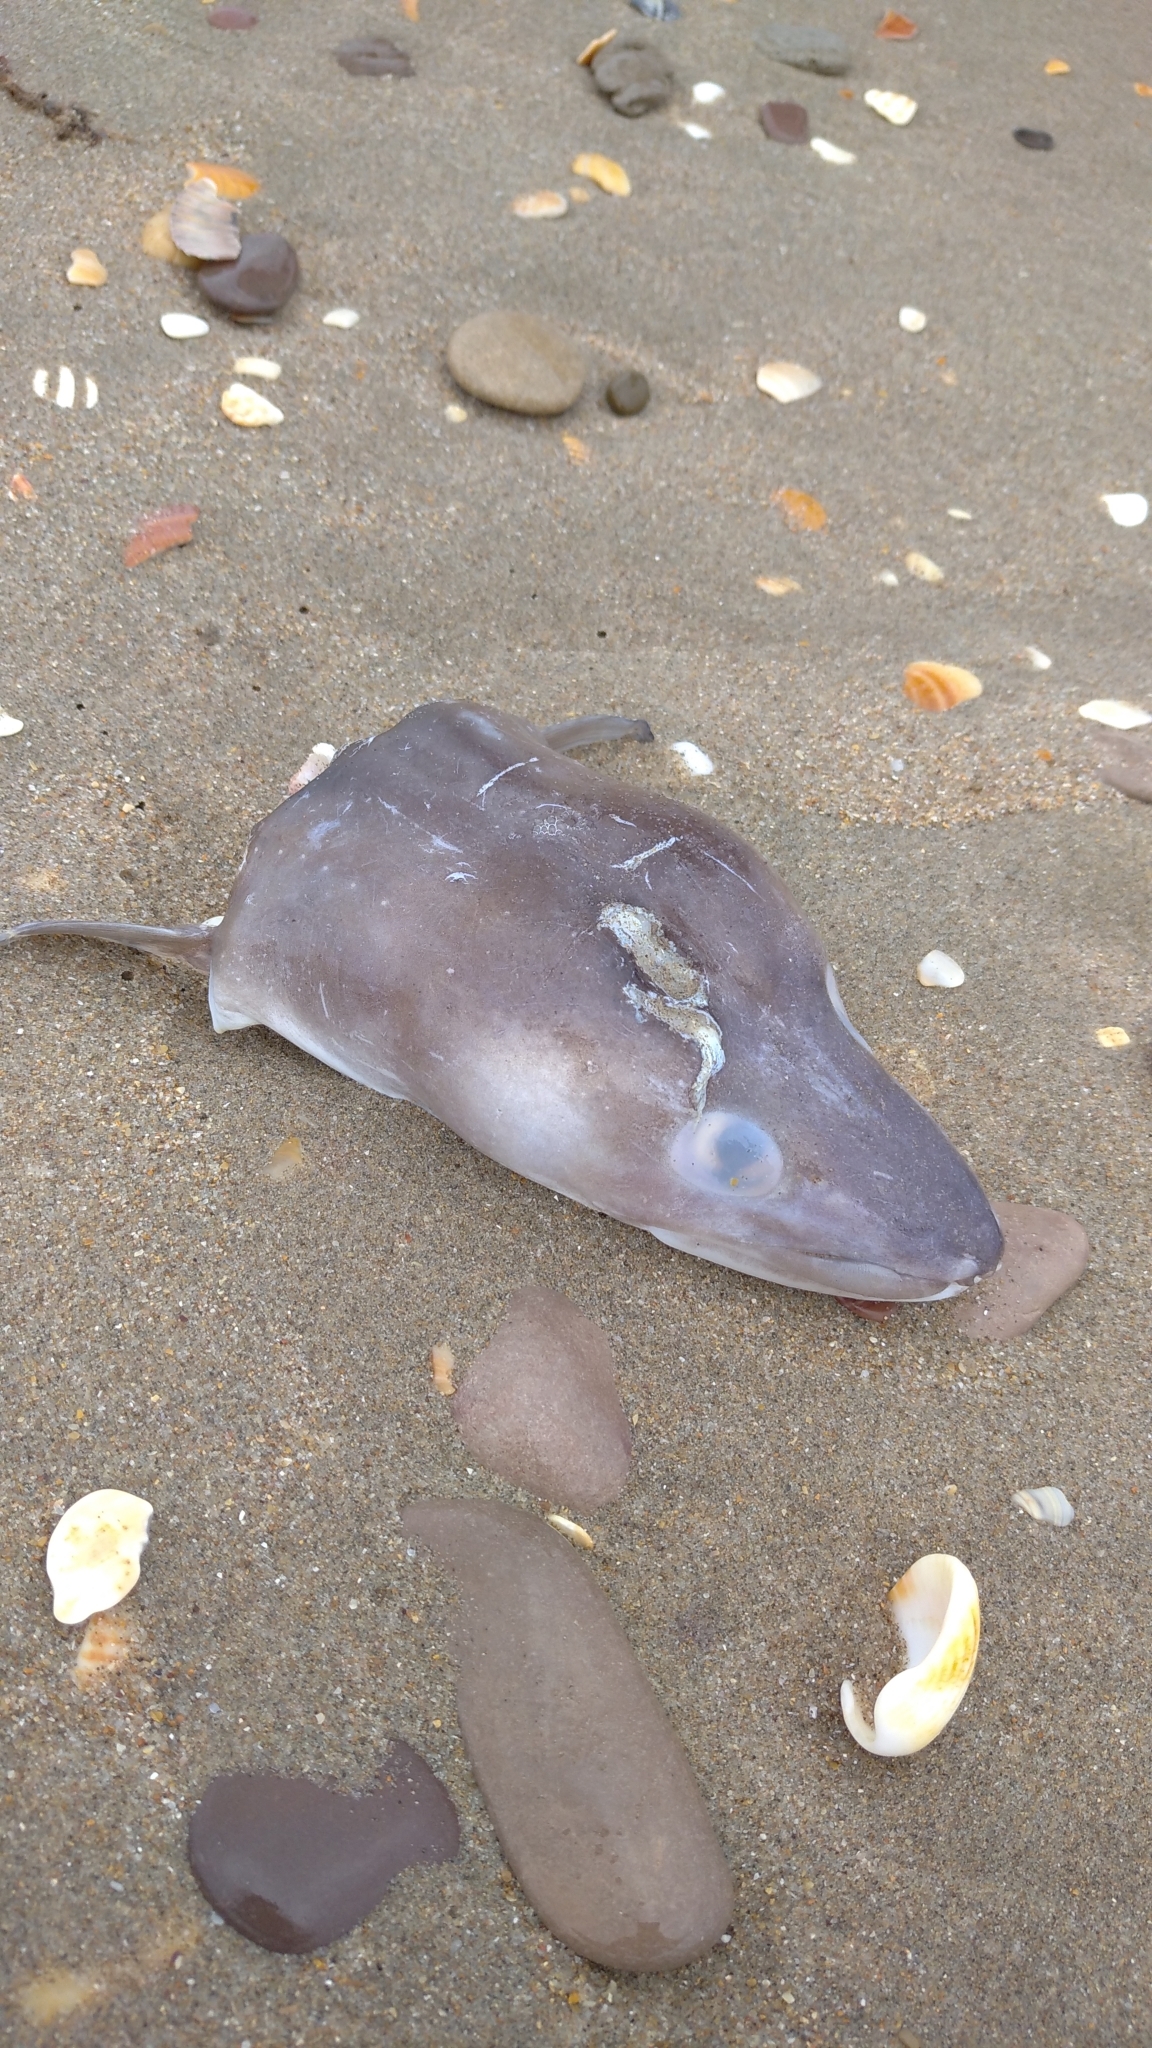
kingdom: Animalia
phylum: Chordata
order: Anguilliformes
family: Congridae
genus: Conger
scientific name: Conger conger
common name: Conger eel
